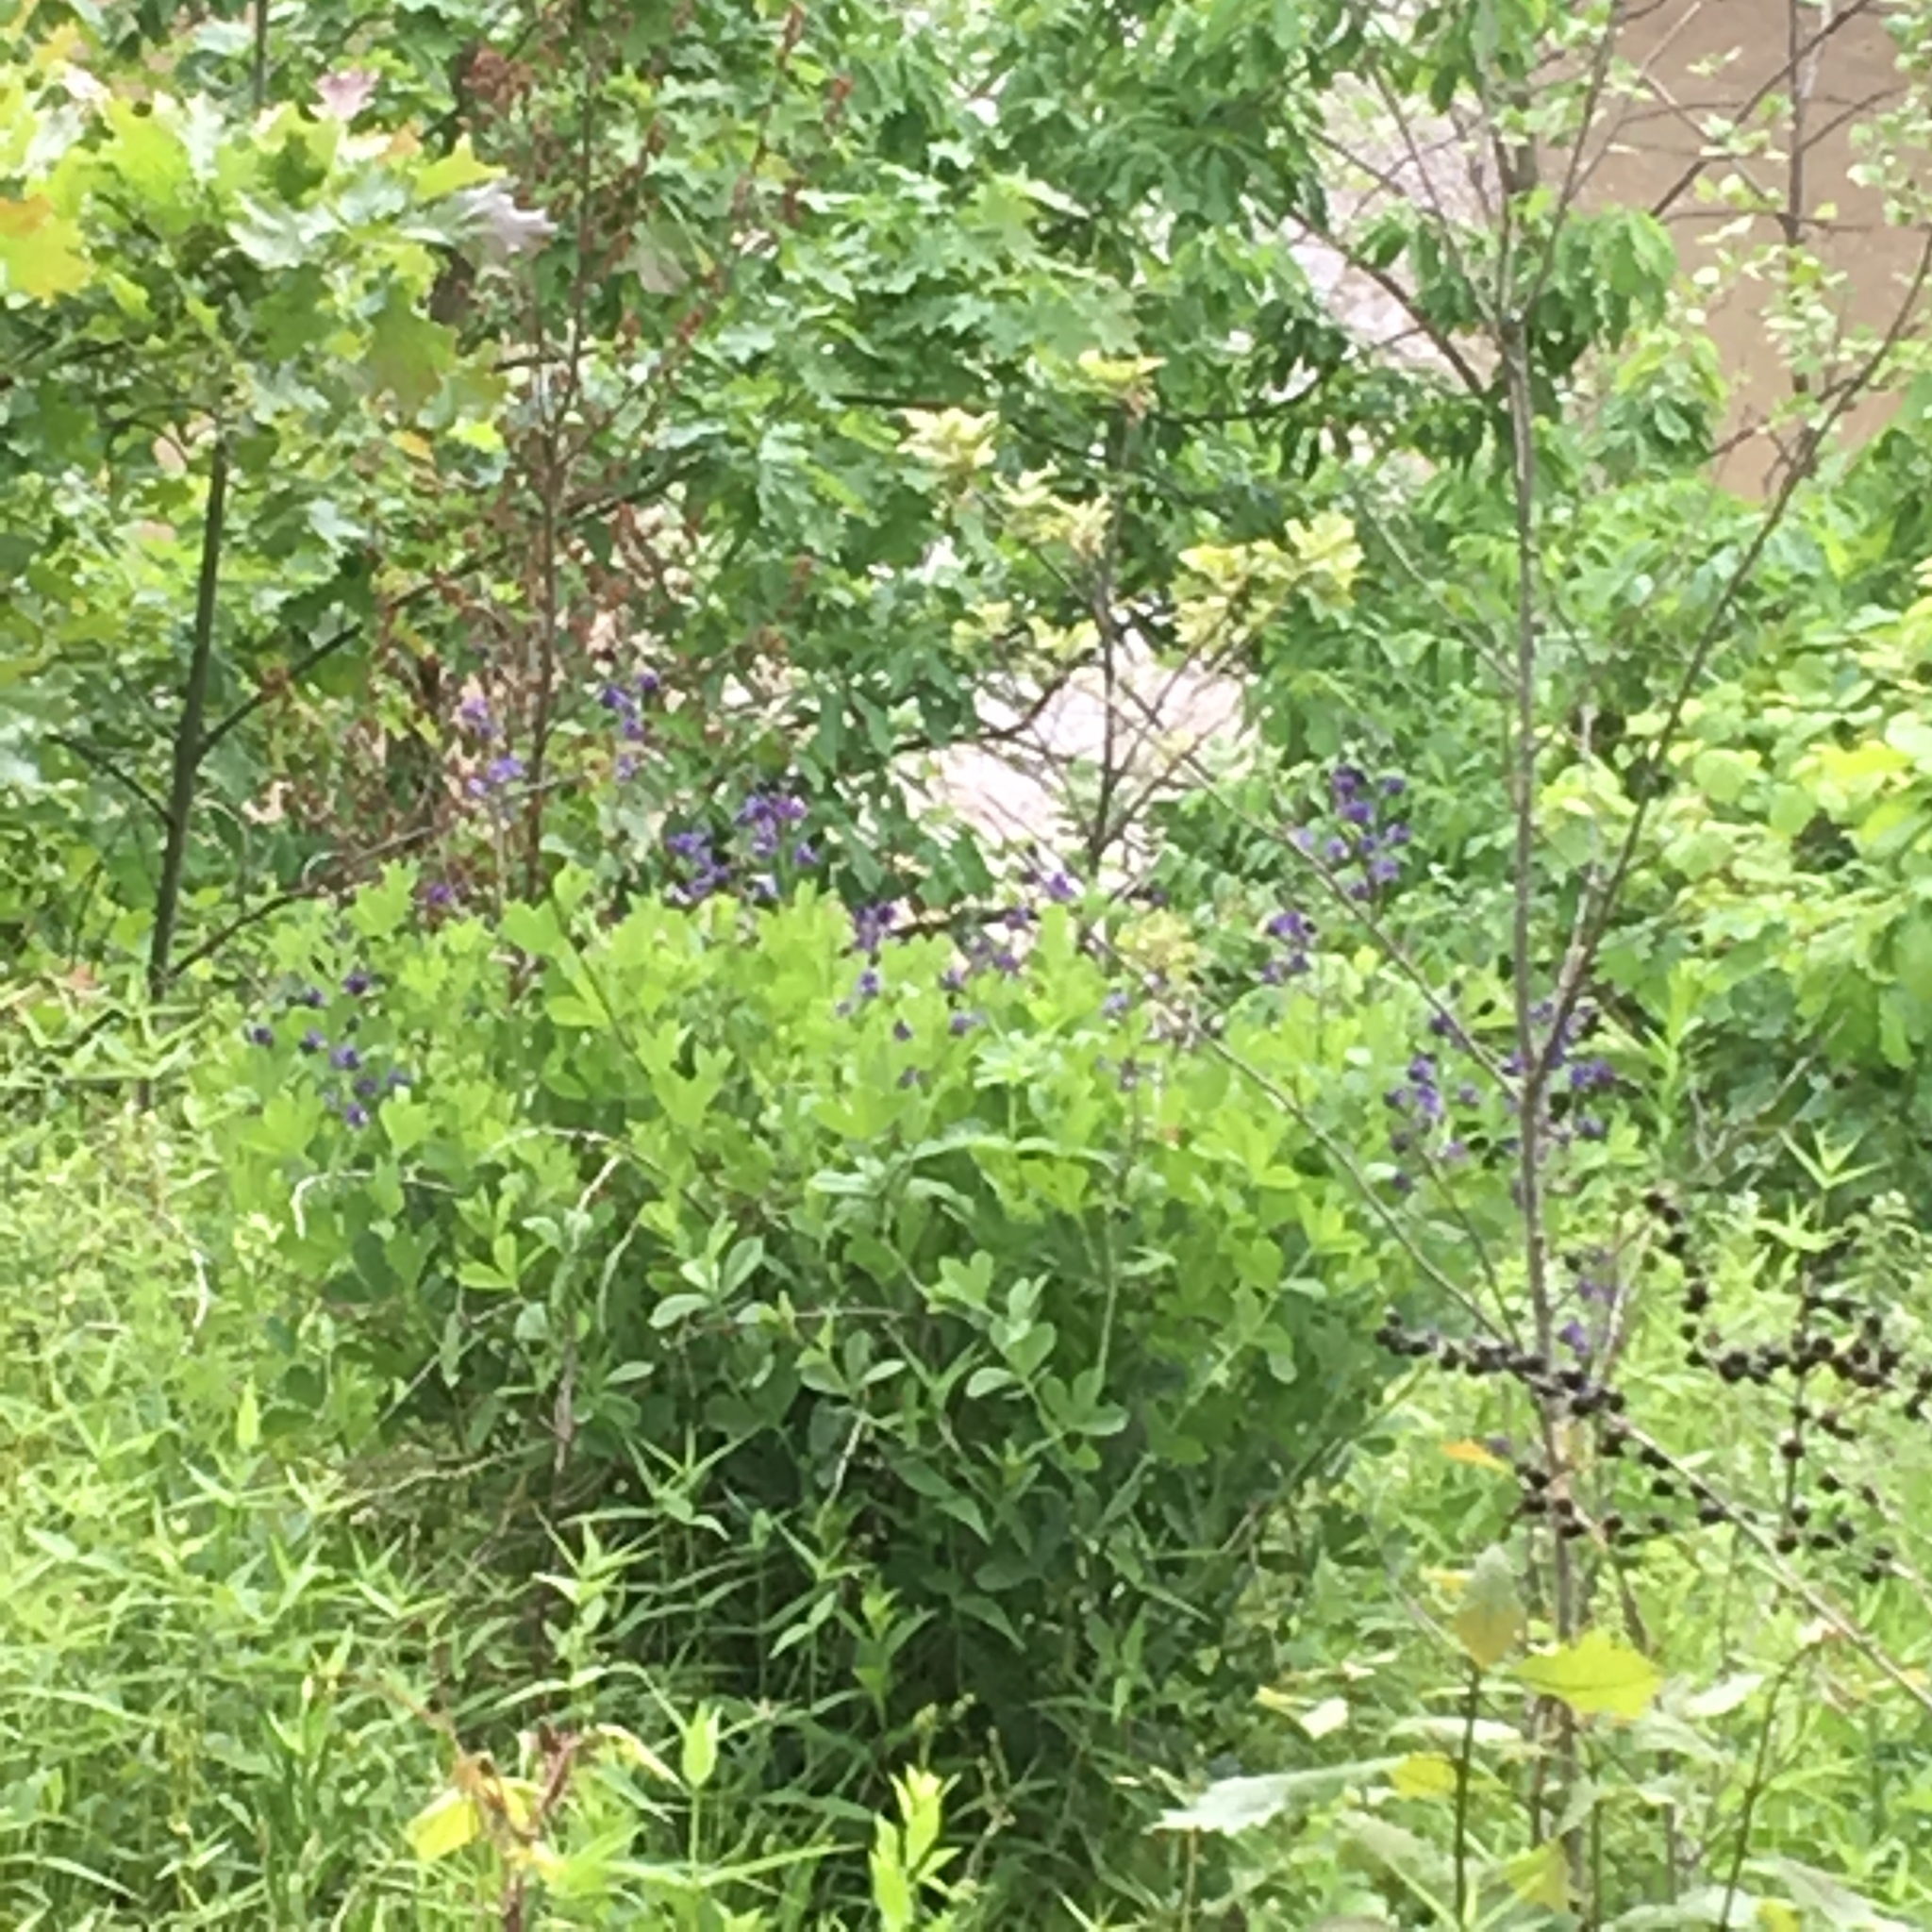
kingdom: Plantae
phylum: Tracheophyta
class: Magnoliopsida
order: Fabales
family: Fabaceae
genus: Baptisia
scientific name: Baptisia australis
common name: Blue false indigo
